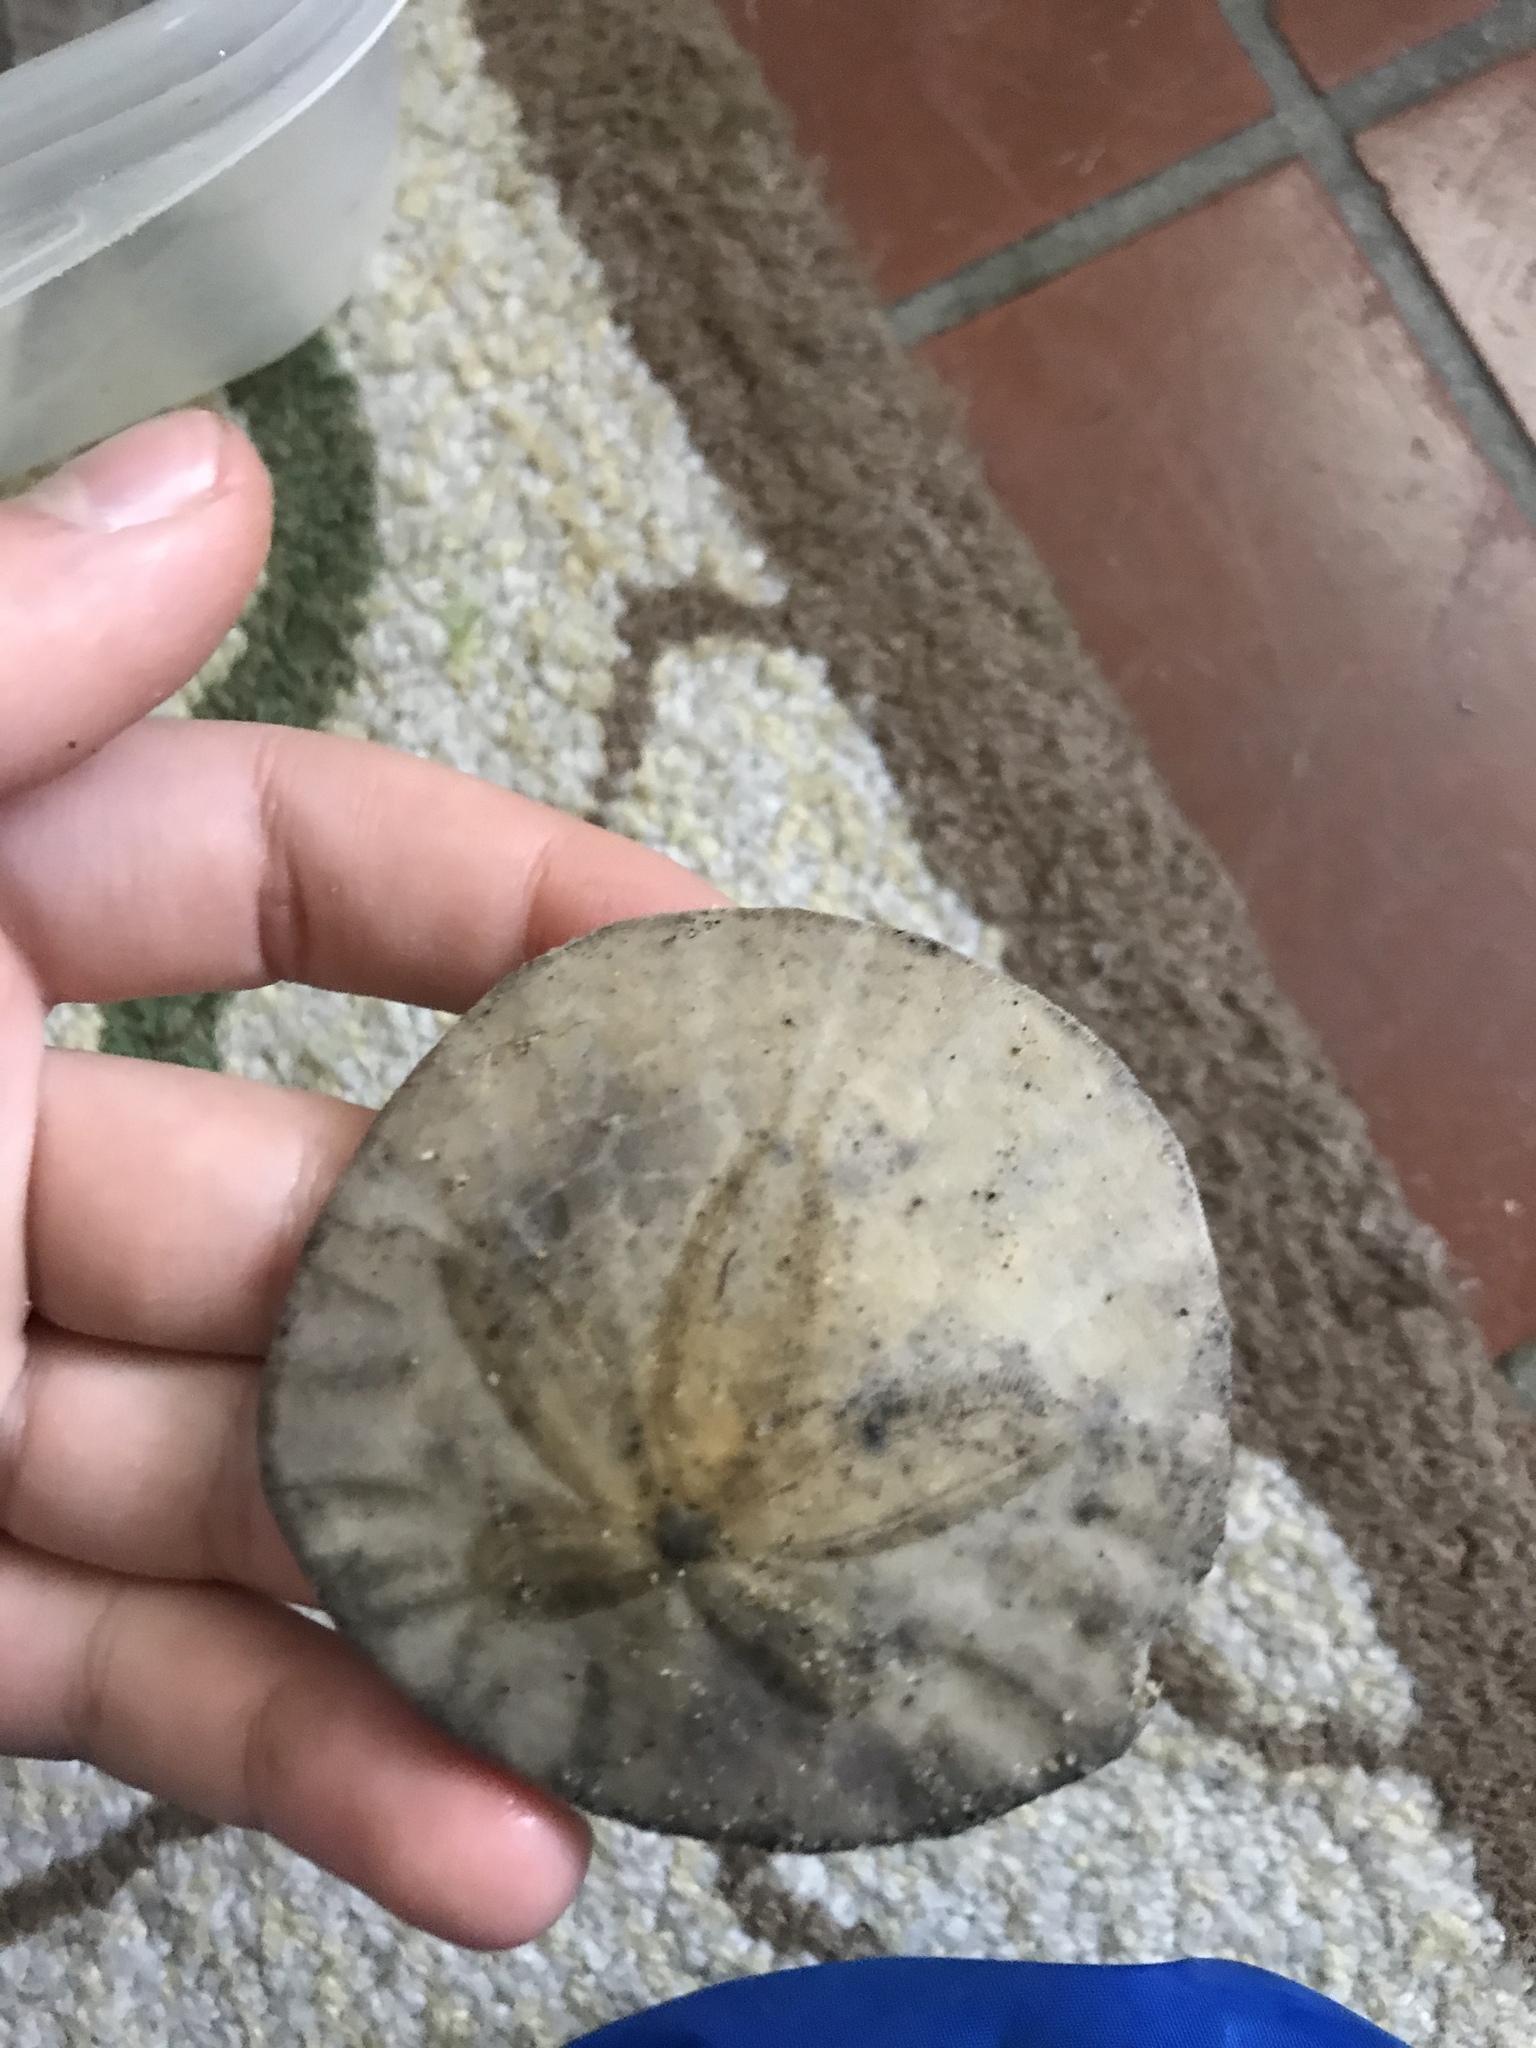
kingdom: Animalia
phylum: Echinodermata
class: Echinoidea
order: Echinolampadacea
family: Dendrasteridae
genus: Dendraster
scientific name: Dendraster excentricus
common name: Eccentric sand dollar sea urchin
